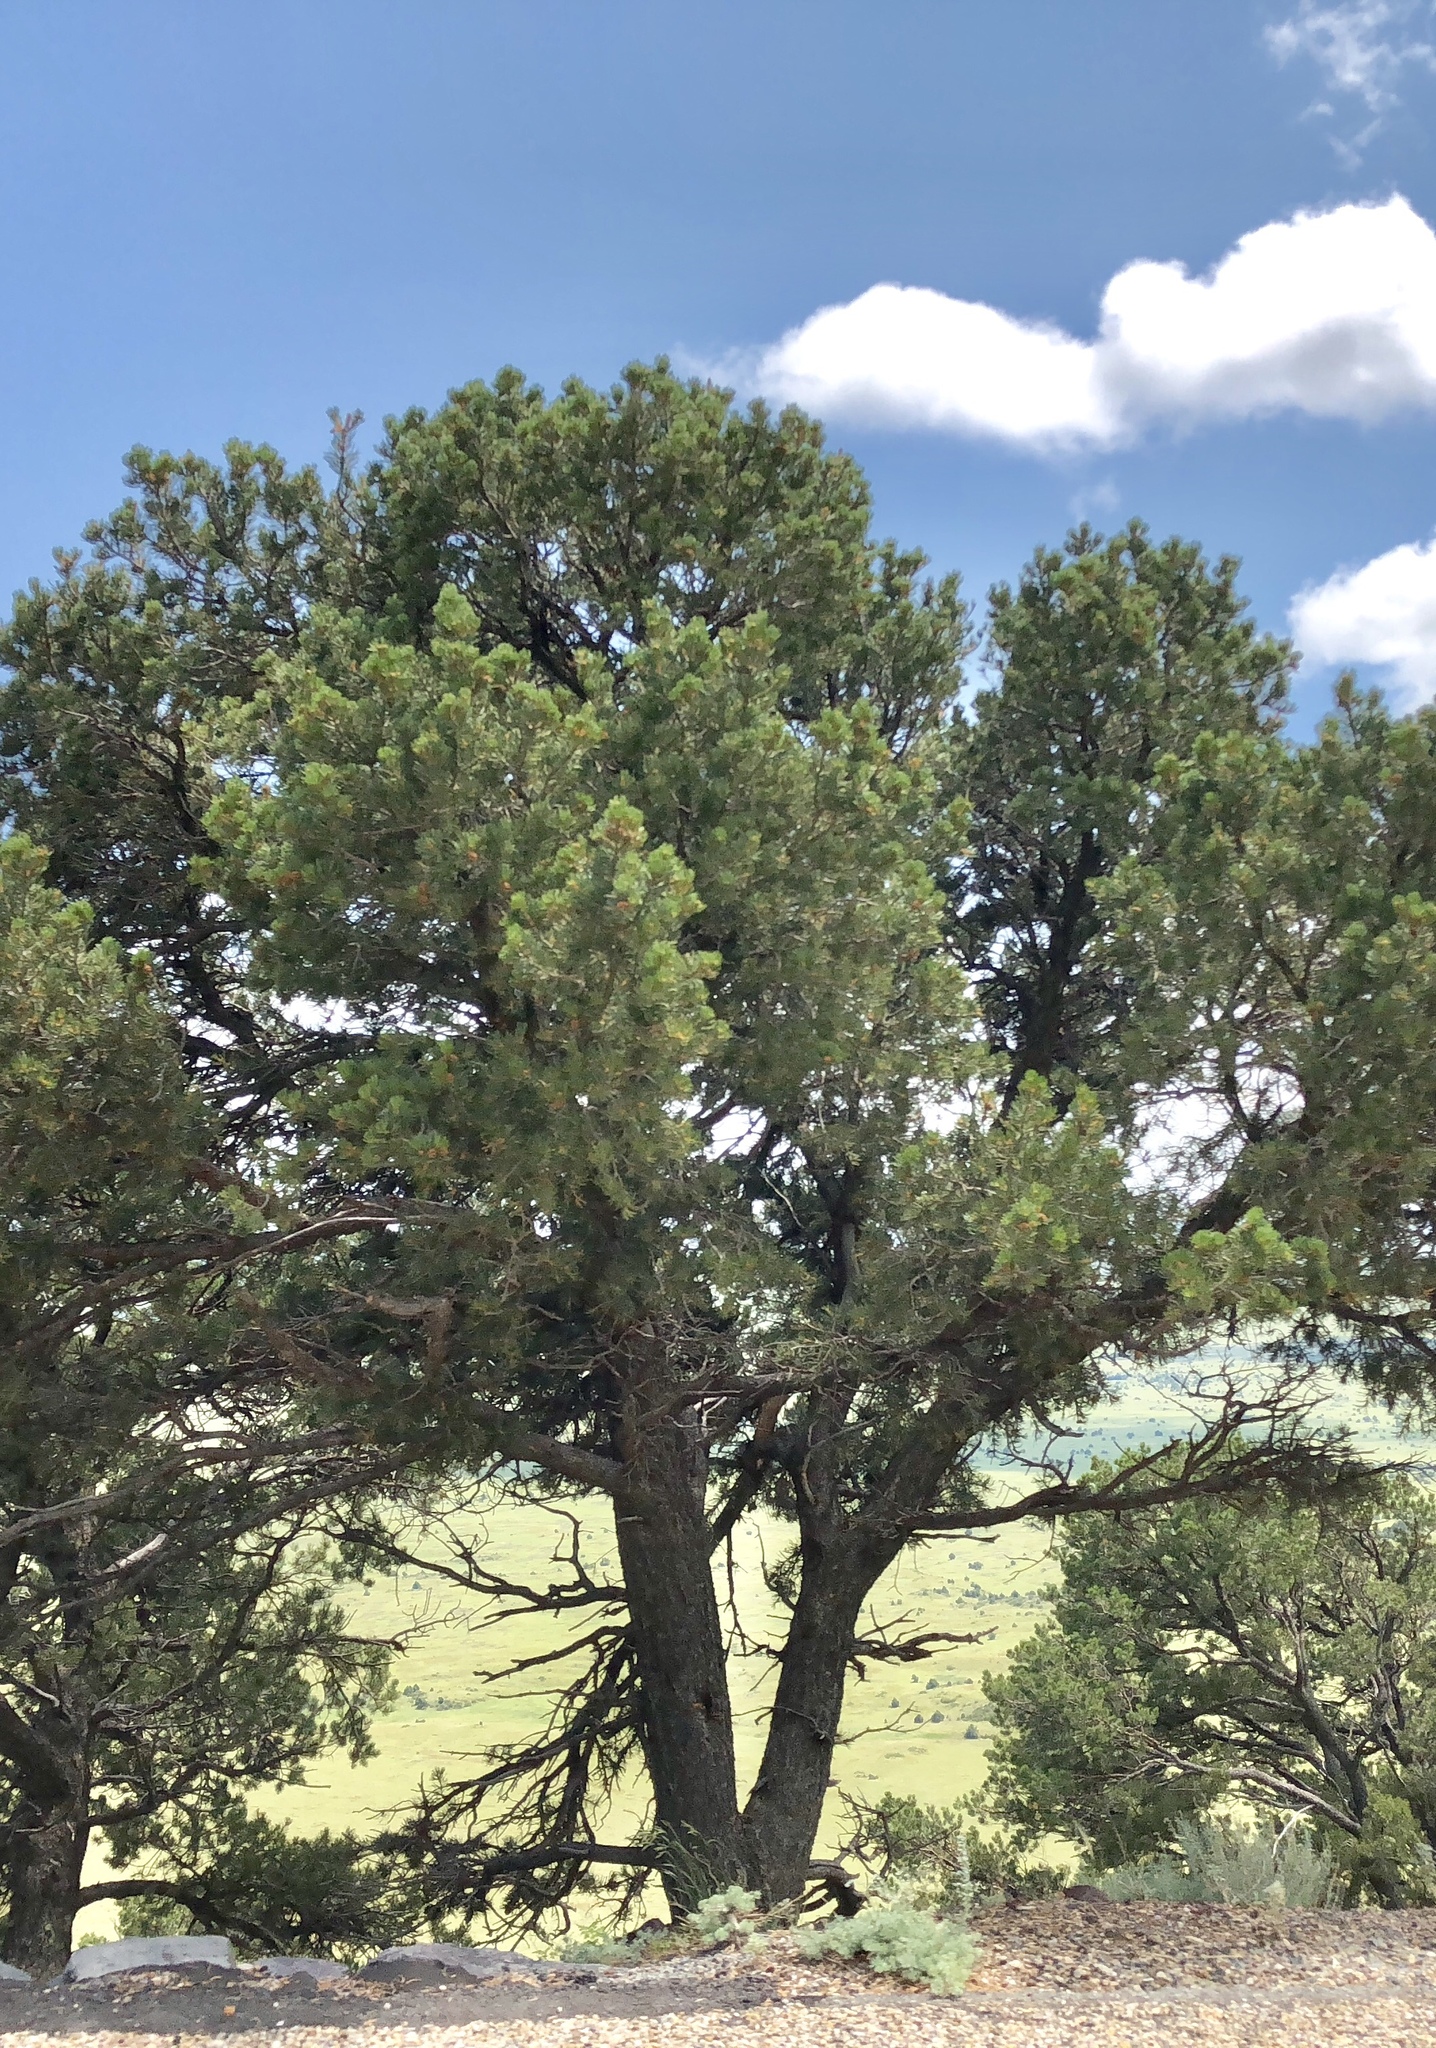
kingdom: Plantae
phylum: Tracheophyta
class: Pinopsida
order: Pinales
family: Pinaceae
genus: Pinus
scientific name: Pinus edulis
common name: Colorado pinyon
